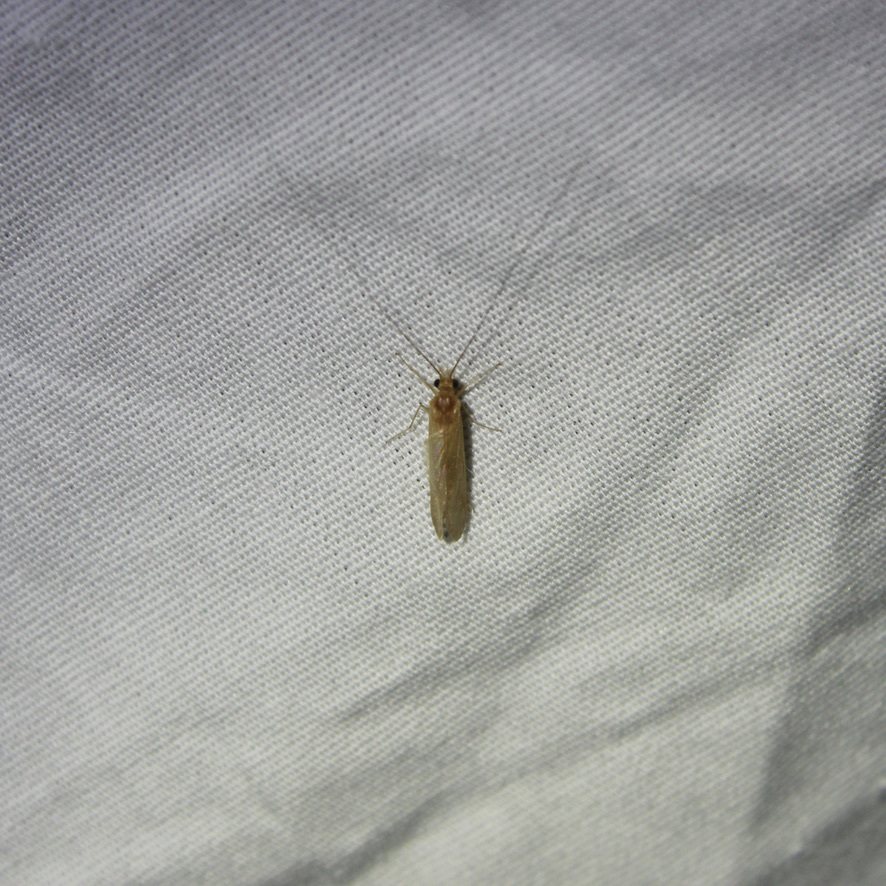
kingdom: Animalia
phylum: Arthropoda
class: Insecta
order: Trichoptera
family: Hydropsychidae
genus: Potamyia
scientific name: Potamyia flava
